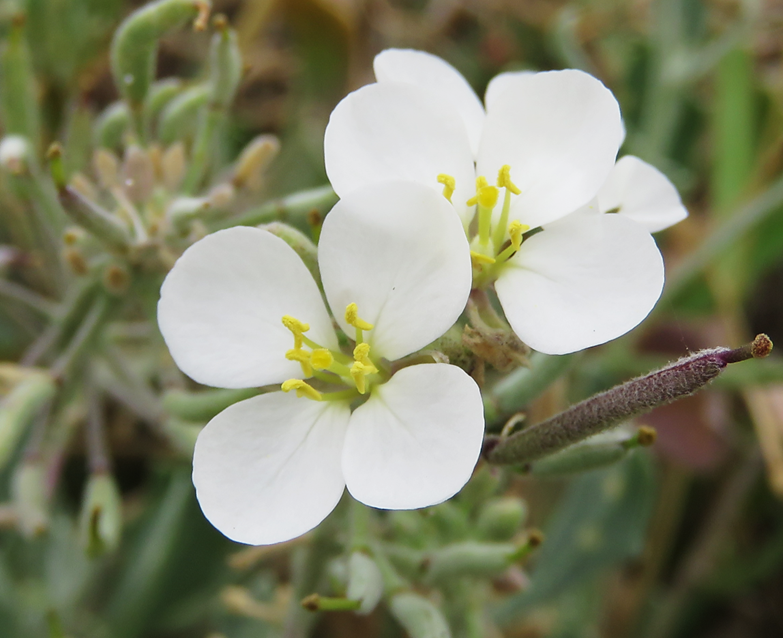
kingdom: Plantae
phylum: Tracheophyta
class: Magnoliopsida
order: Brassicales
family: Brassicaceae
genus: Nerisyrenia
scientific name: Nerisyrenia camporum
